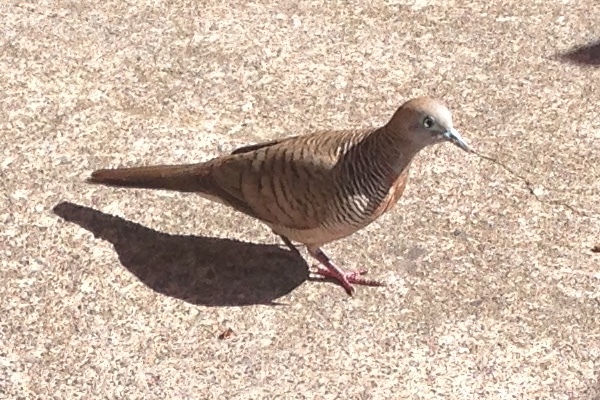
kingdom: Animalia
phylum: Chordata
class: Aves
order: Columbiformes
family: Columbidae
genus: Geopelia
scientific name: Geopelia striata
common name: Zebra dove
